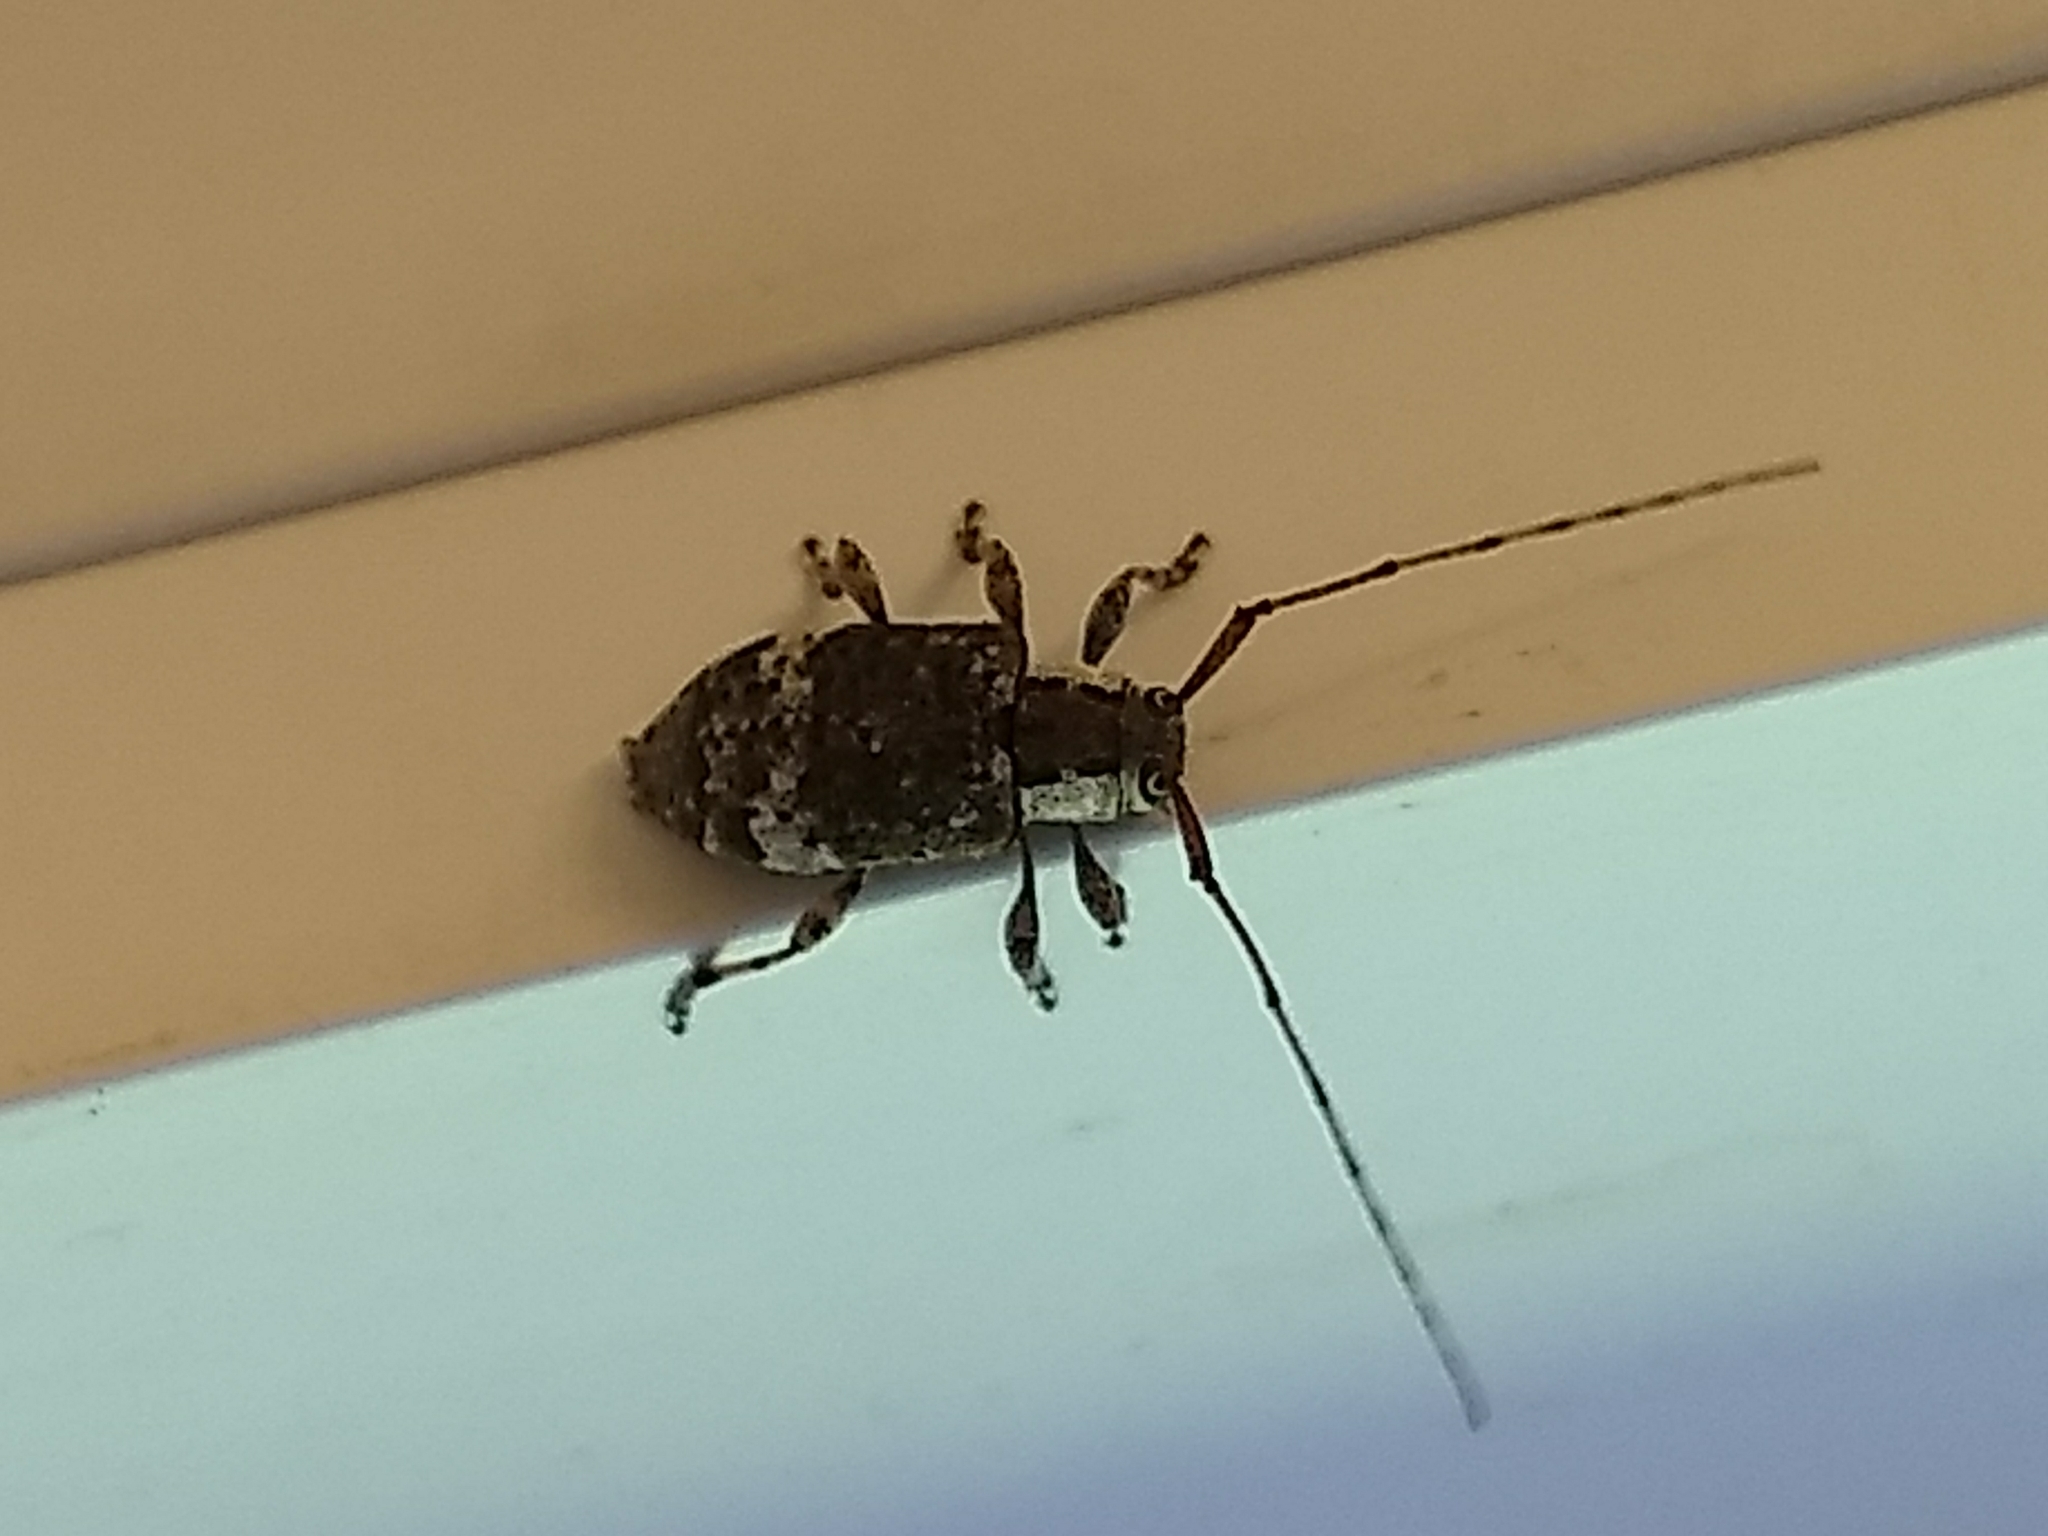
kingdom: Animalia
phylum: Arthropoda
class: Insecta
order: Coleoptera
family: Cerambycidae
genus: Astylopsis
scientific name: Astylopsis macula
